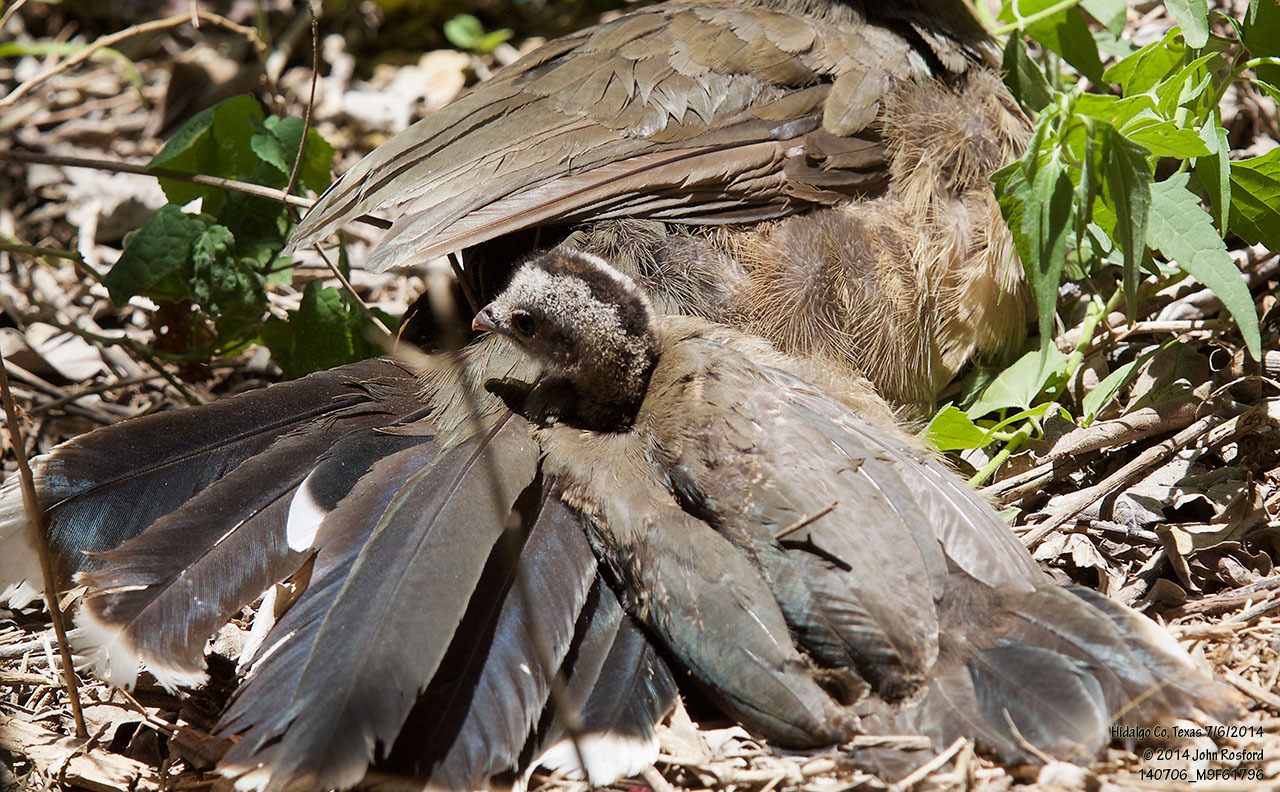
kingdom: Animalia
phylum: Chordata
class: Aves
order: Galliformes
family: Cracidae
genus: Ortalis
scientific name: Ortalis vetula
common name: Plain chachalaca
